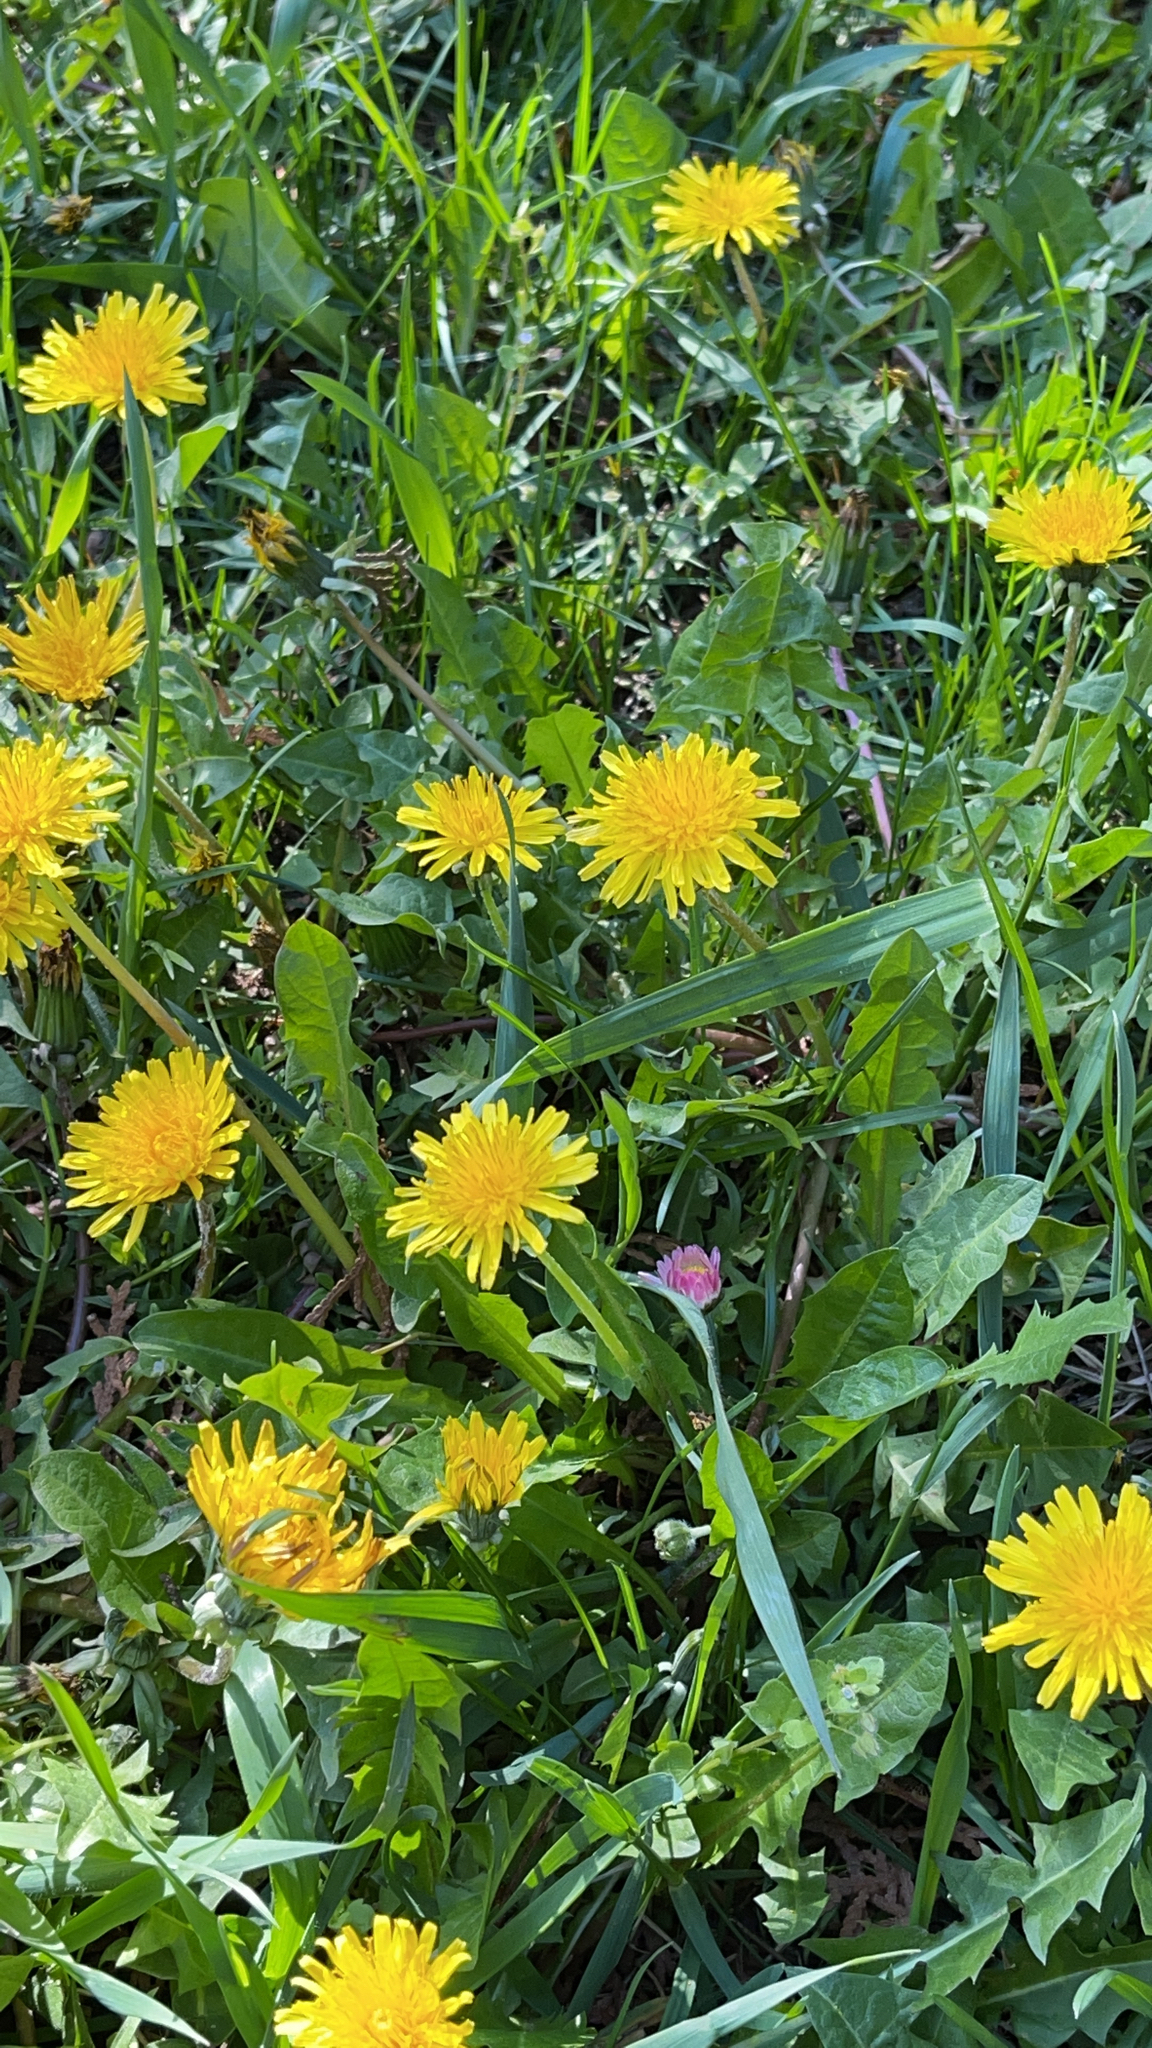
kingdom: Plantae
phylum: Tracheophyta
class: Magnoliopsida
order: Asterales
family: Asteraceae
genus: Taraxacum
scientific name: Taraxacum officinale
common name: Common dandelion
